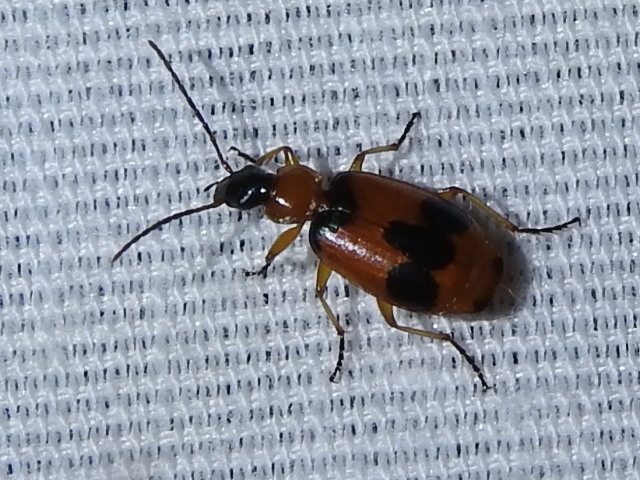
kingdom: Animalia
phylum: Arthropoda
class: Insecta
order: Coleoptera
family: Carabidae
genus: Lebia
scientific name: Lebia pulchella
